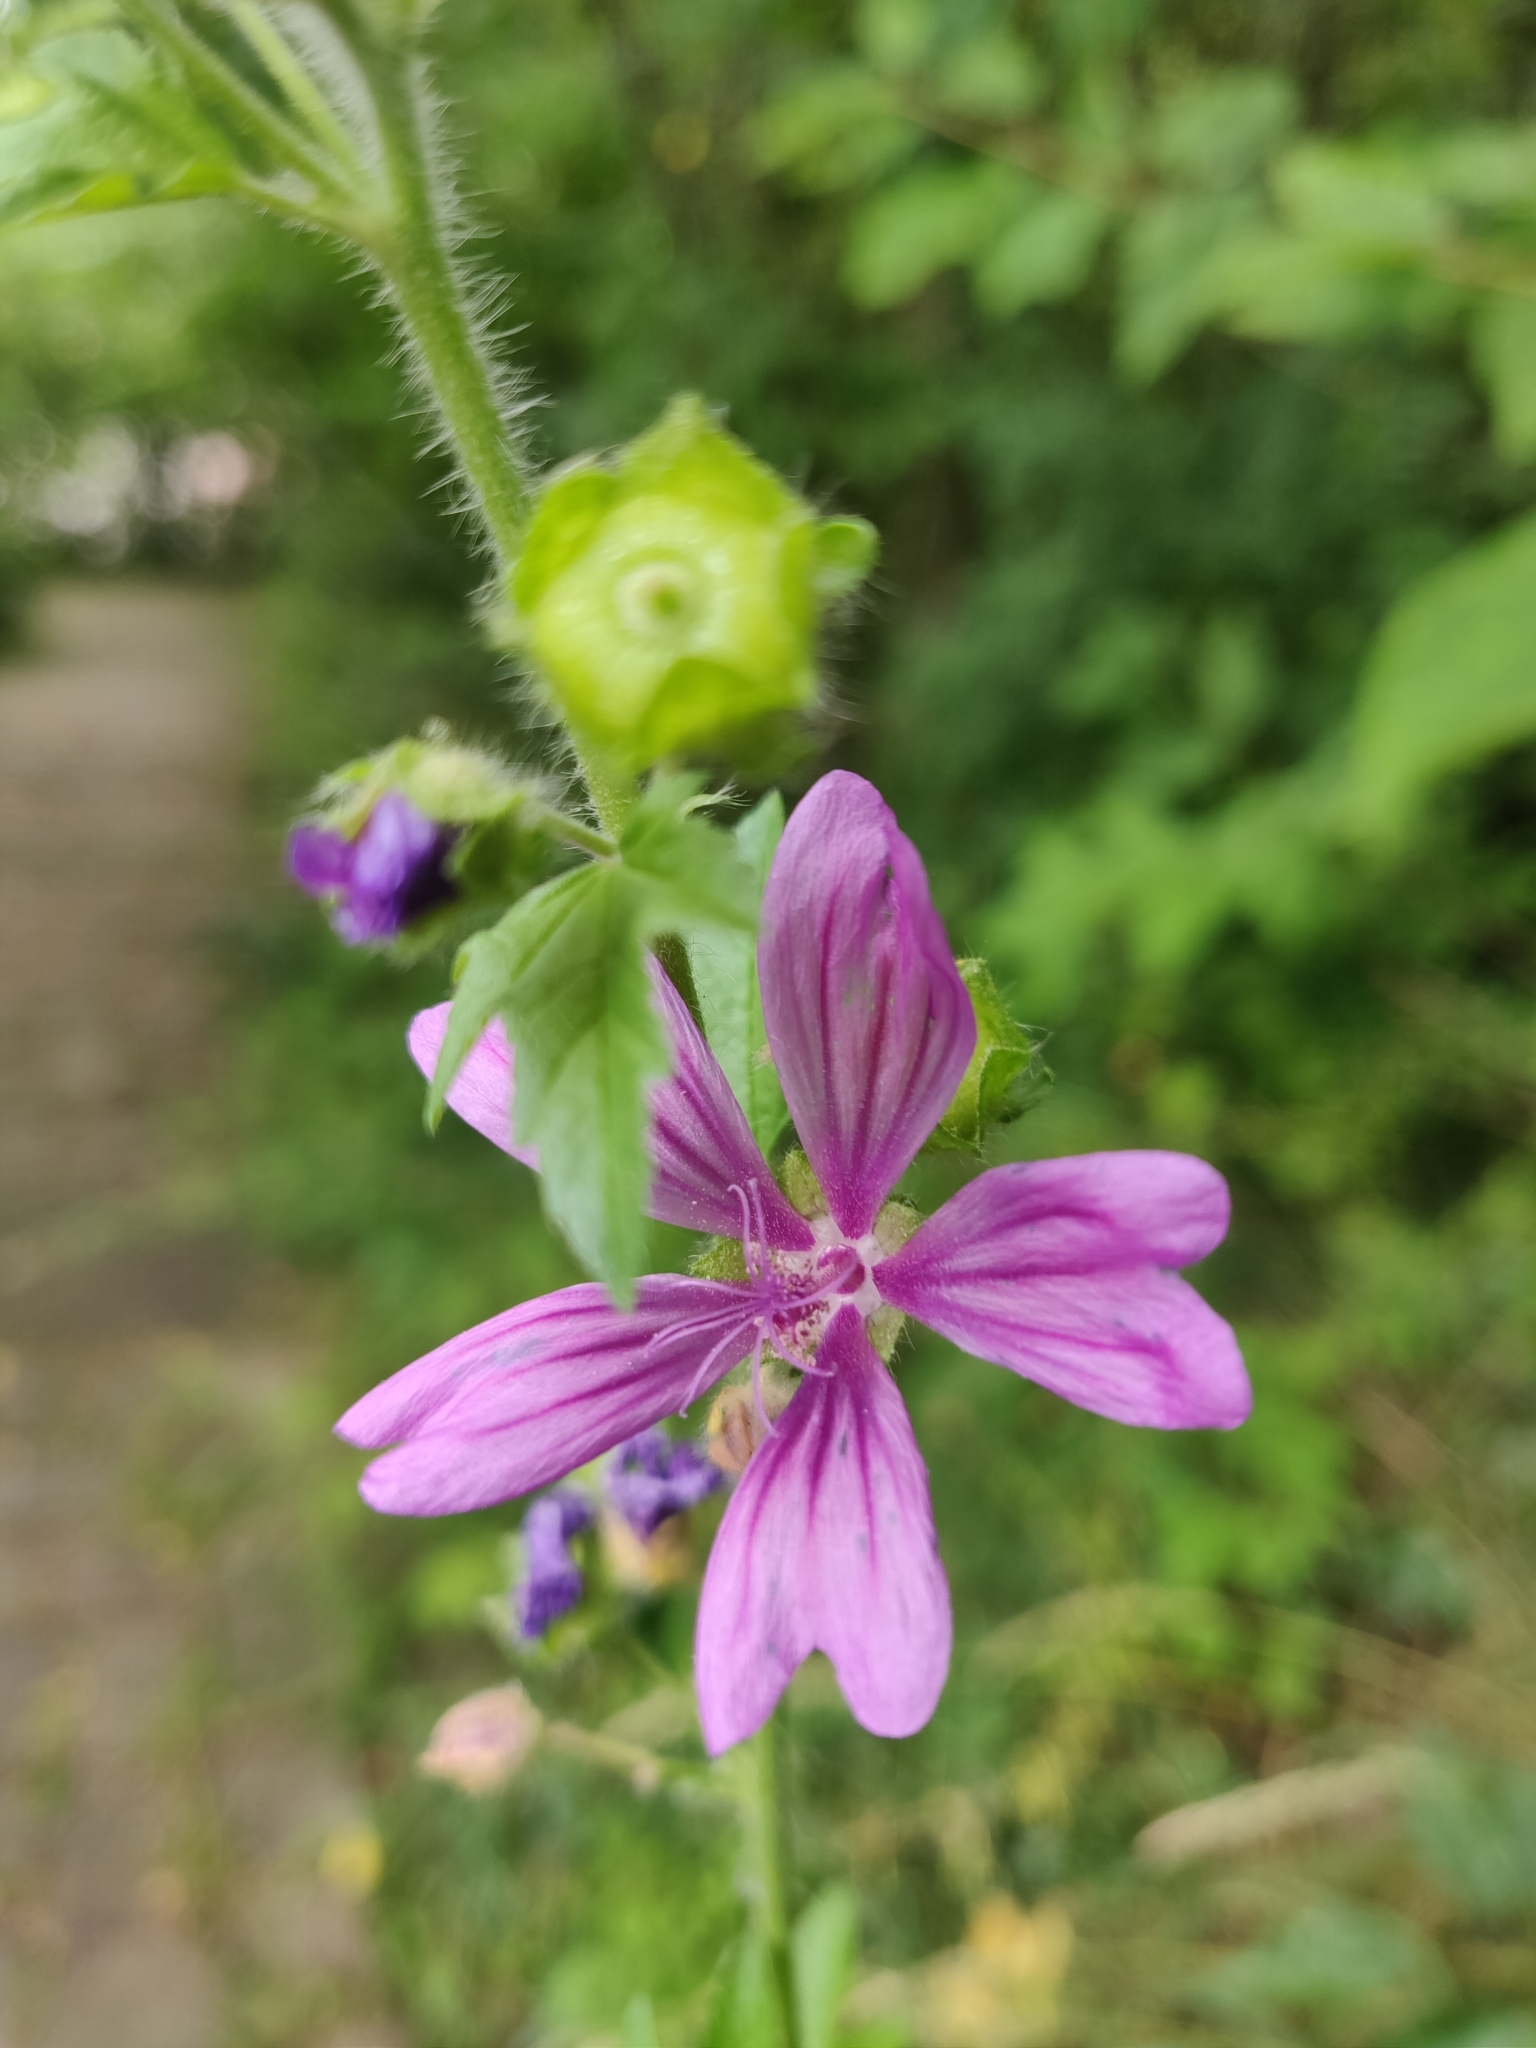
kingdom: Plantae
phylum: Tracheophyta
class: Magnoliopsida
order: Malvales
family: Malvaceae
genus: Malva
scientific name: Malva sylvestris
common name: Common mallow
